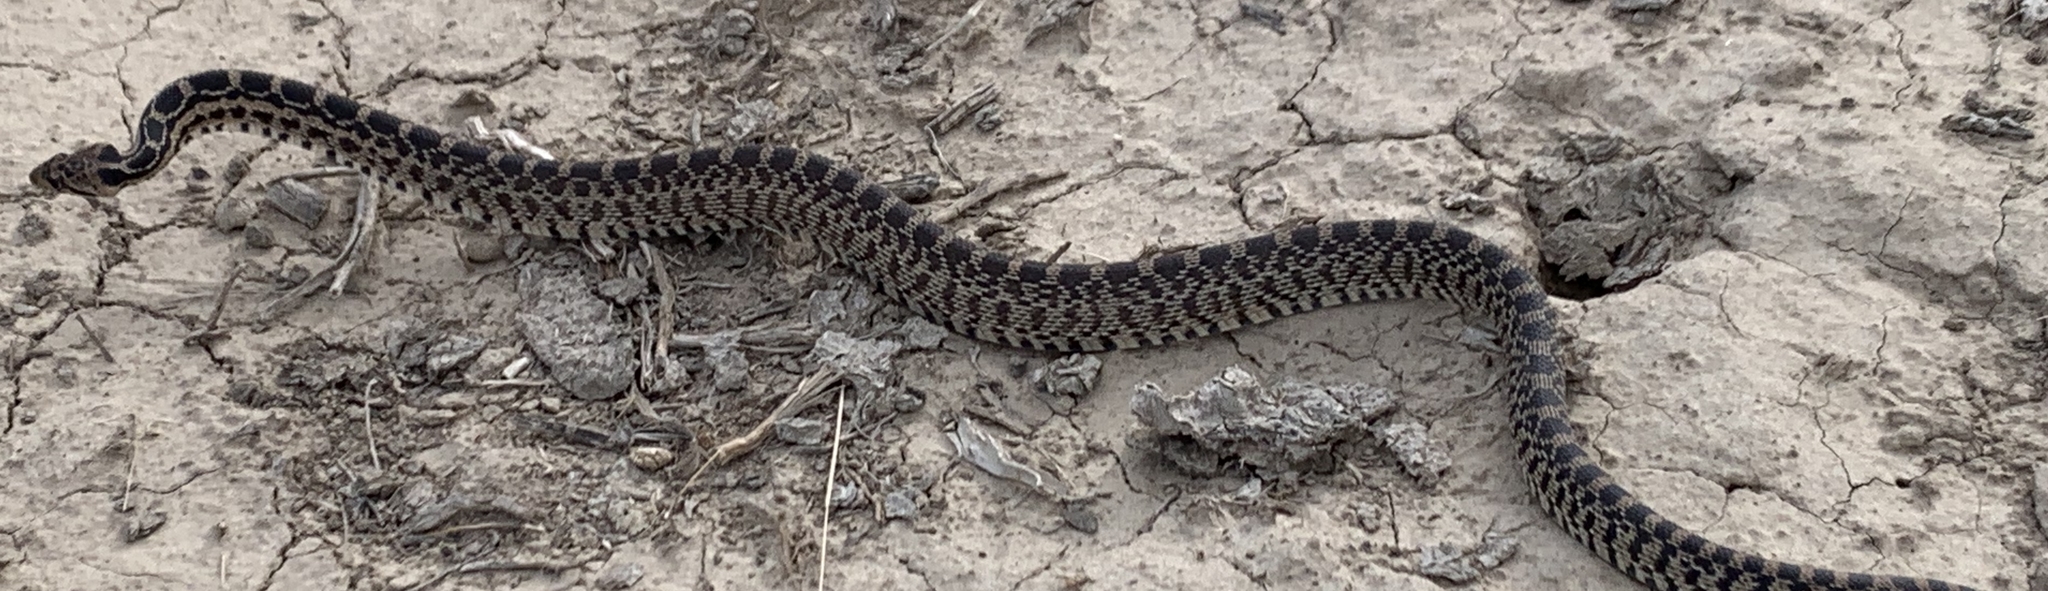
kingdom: Animalia
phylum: Chordata
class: Squamata
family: Colubridae
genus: Pituophis
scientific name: Pituophis catenifer
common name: Gopher snake
